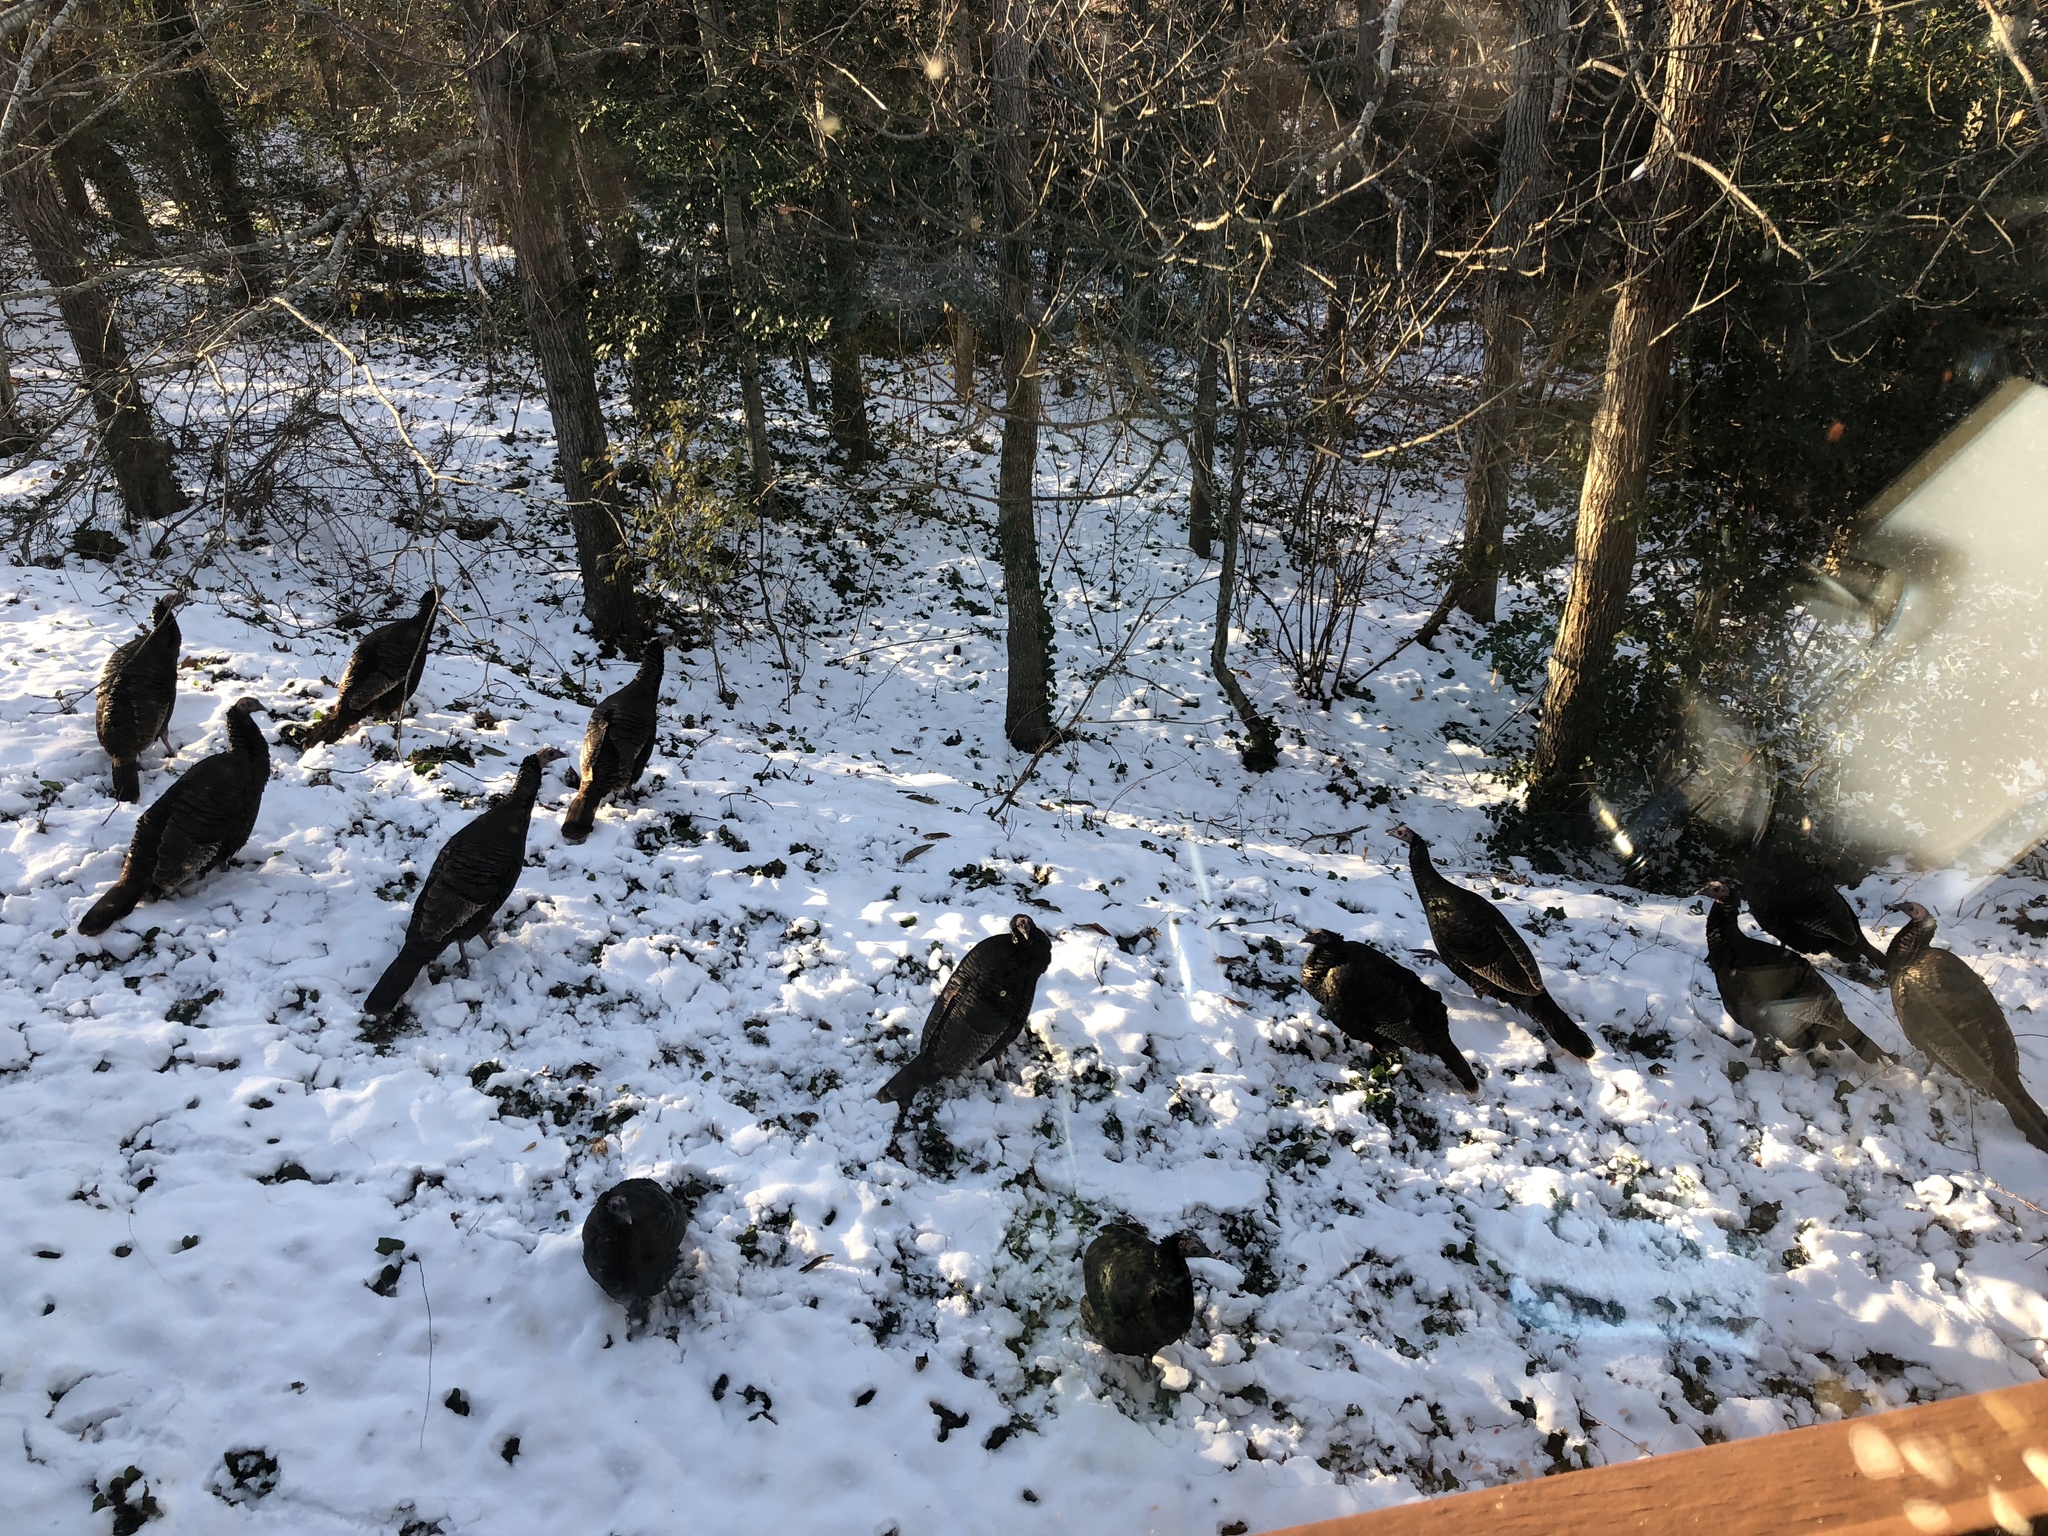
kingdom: Animalia
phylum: Chordata
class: Aves
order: Galliformes
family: Phasianidae
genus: Meleagris
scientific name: Meleagris gallopavo
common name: Wild turkey
